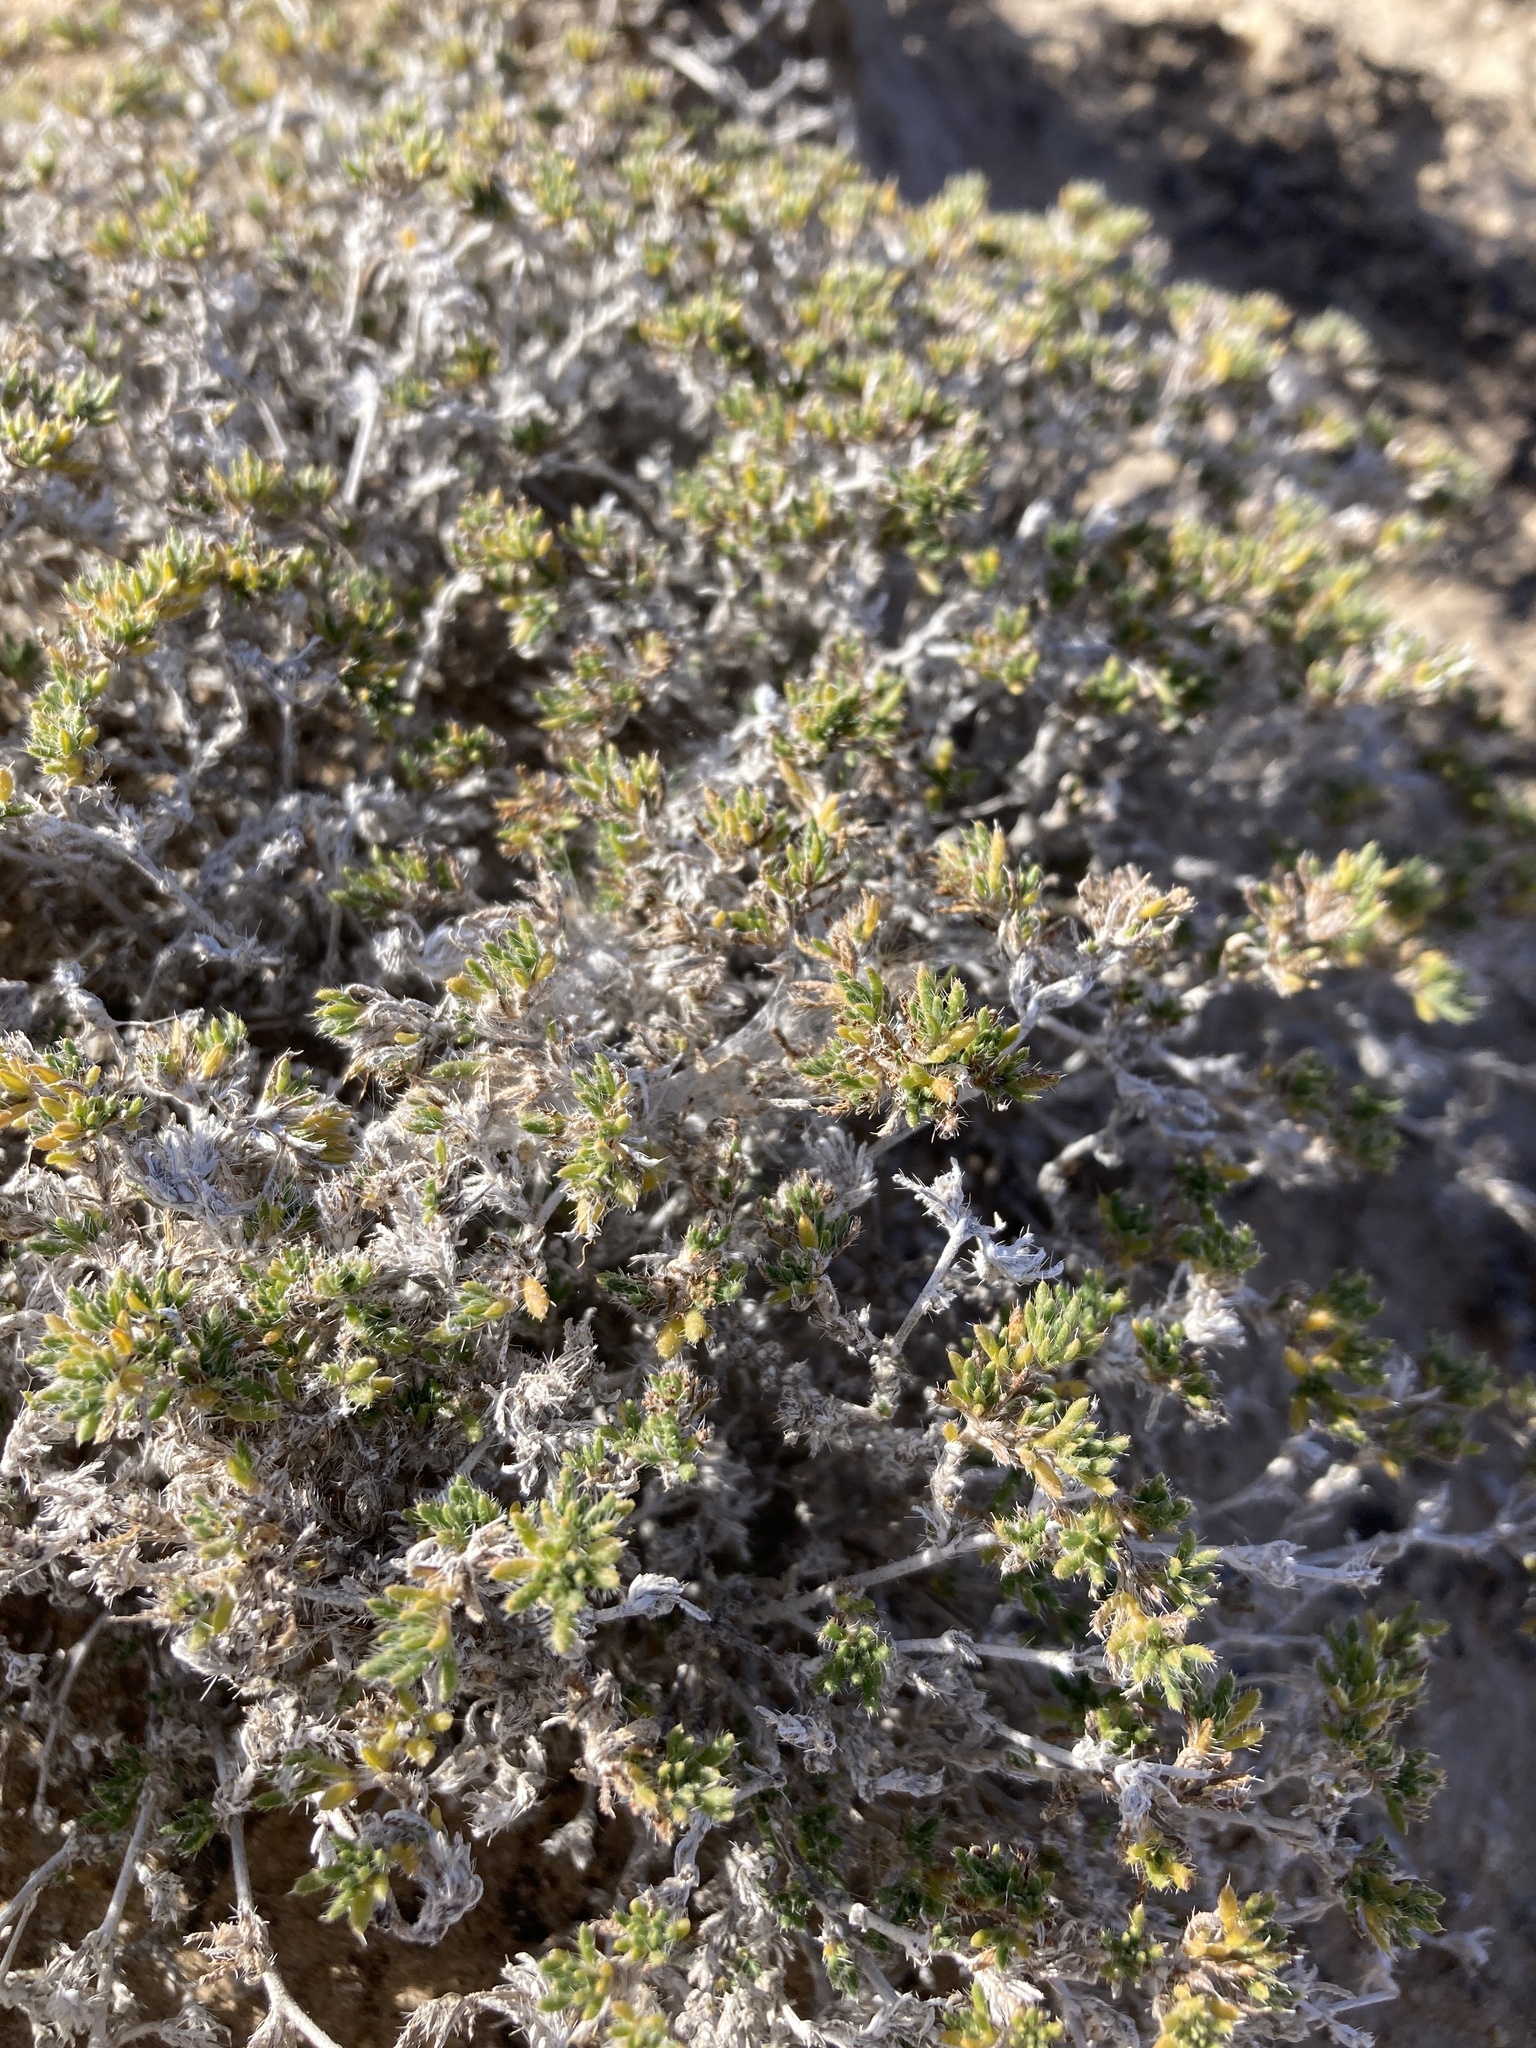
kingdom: Plantae
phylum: Tracheophyta
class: Magnoliopsida
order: Boraginales
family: Ehretiaceae
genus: Tiquilia
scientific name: Tiquilia hispidissima
